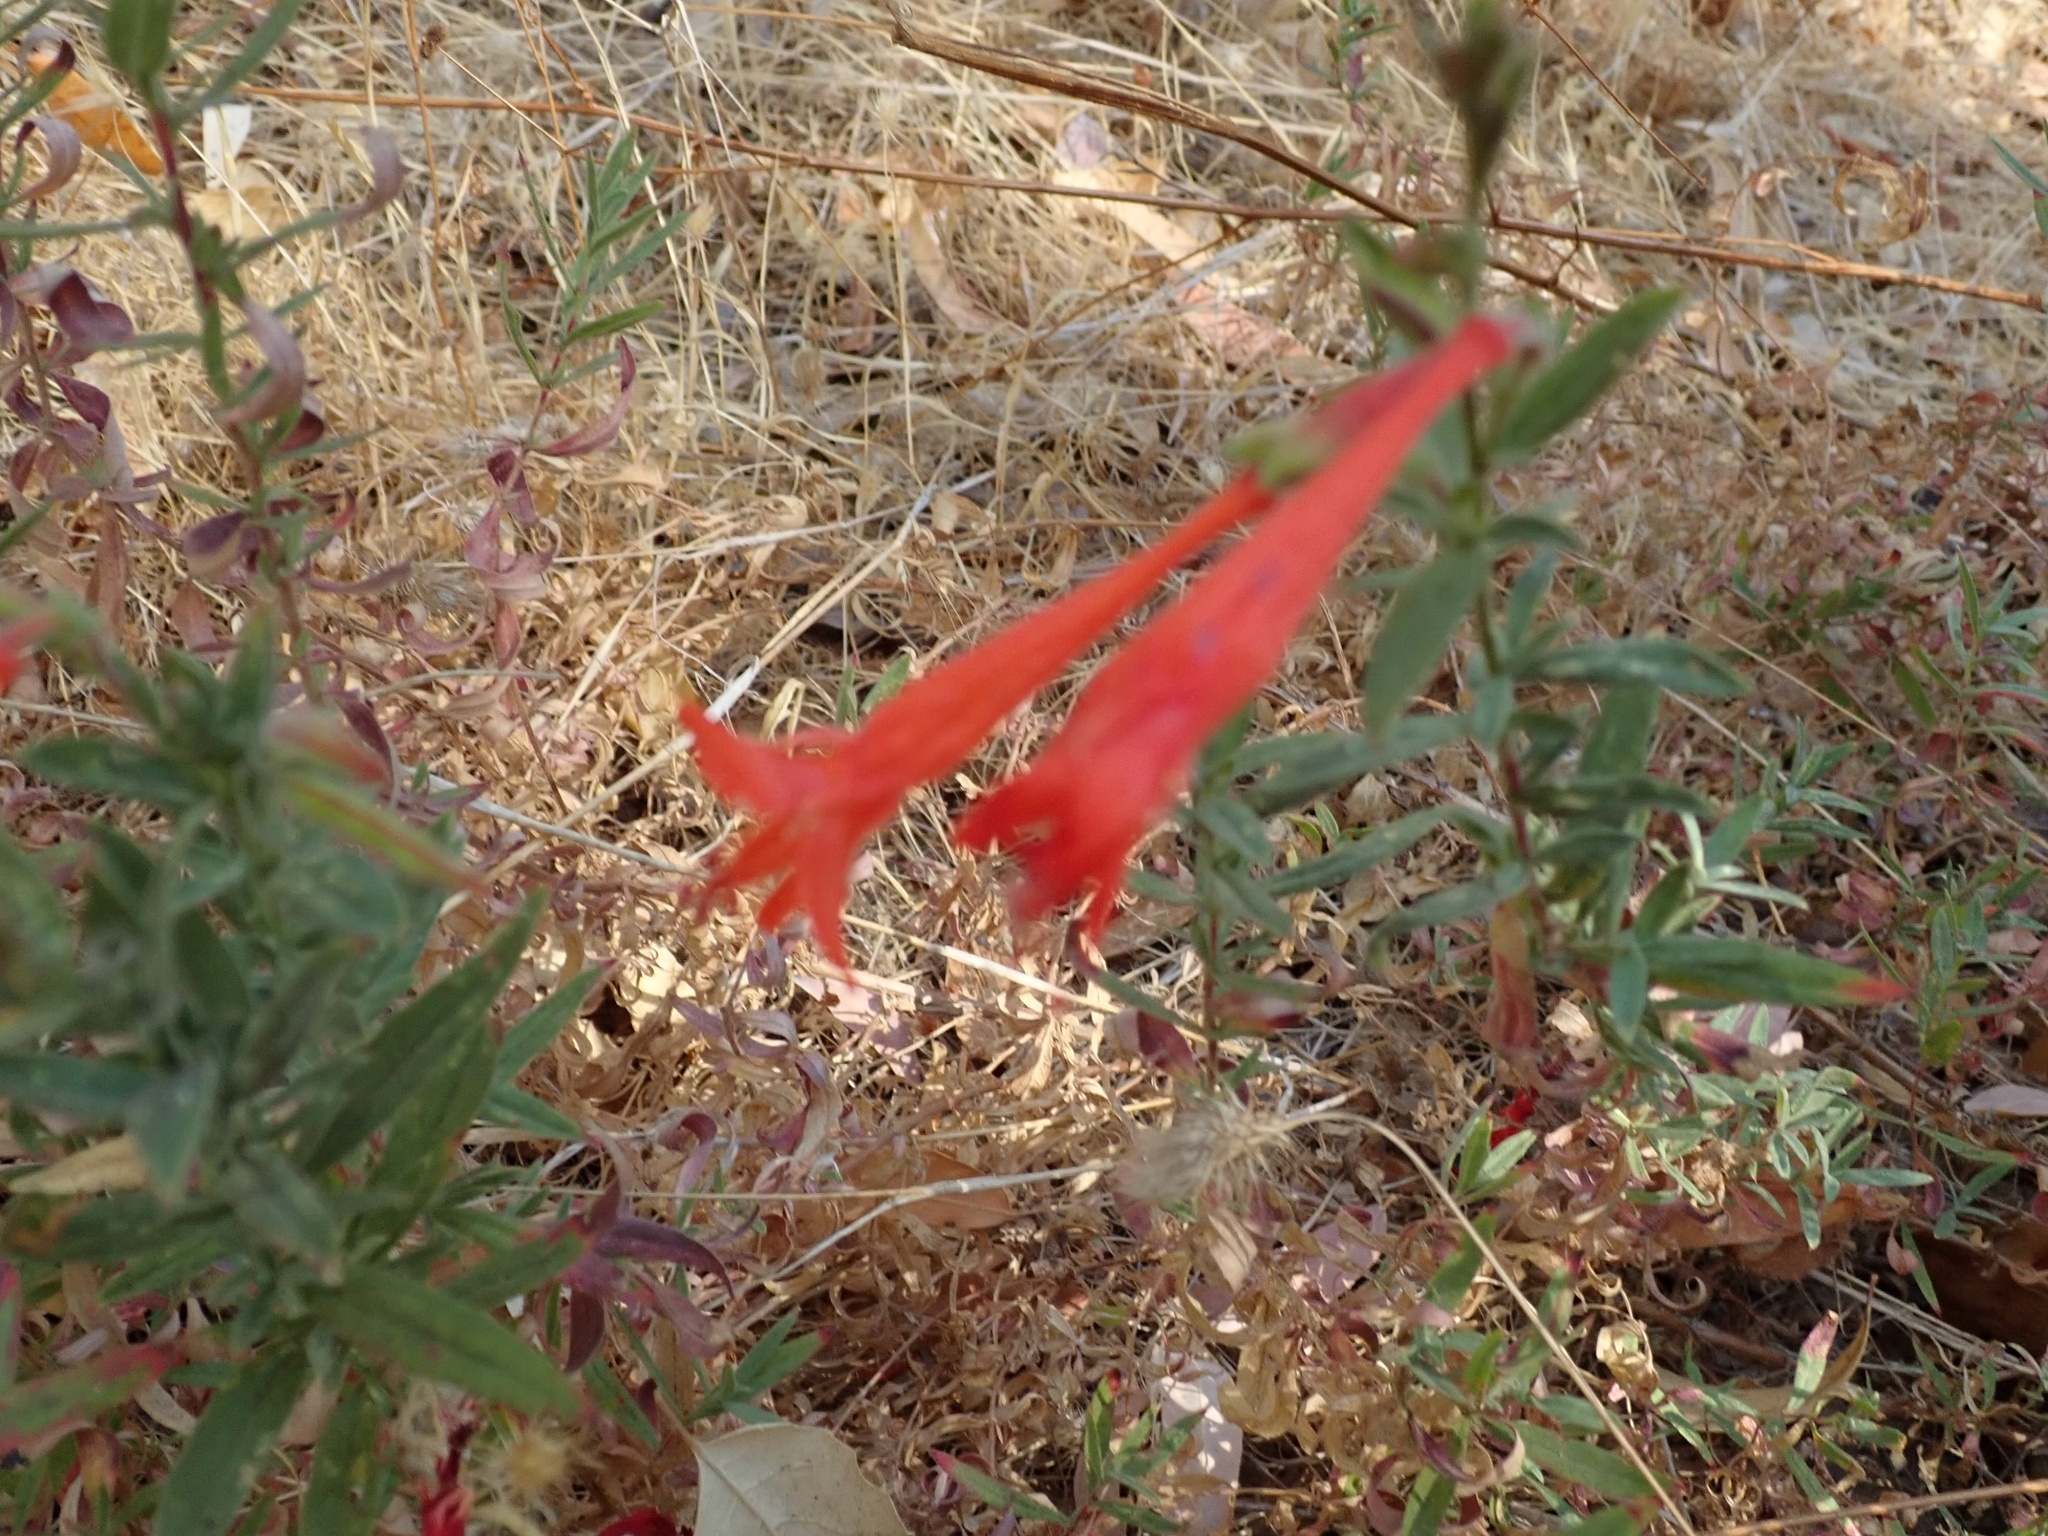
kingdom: Plantae
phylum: Tracheophyta
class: Magnoliopsida
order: Myrtales
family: Onagraceae
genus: Epilobium
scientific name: Epilobium canum
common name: California-fuchsia
